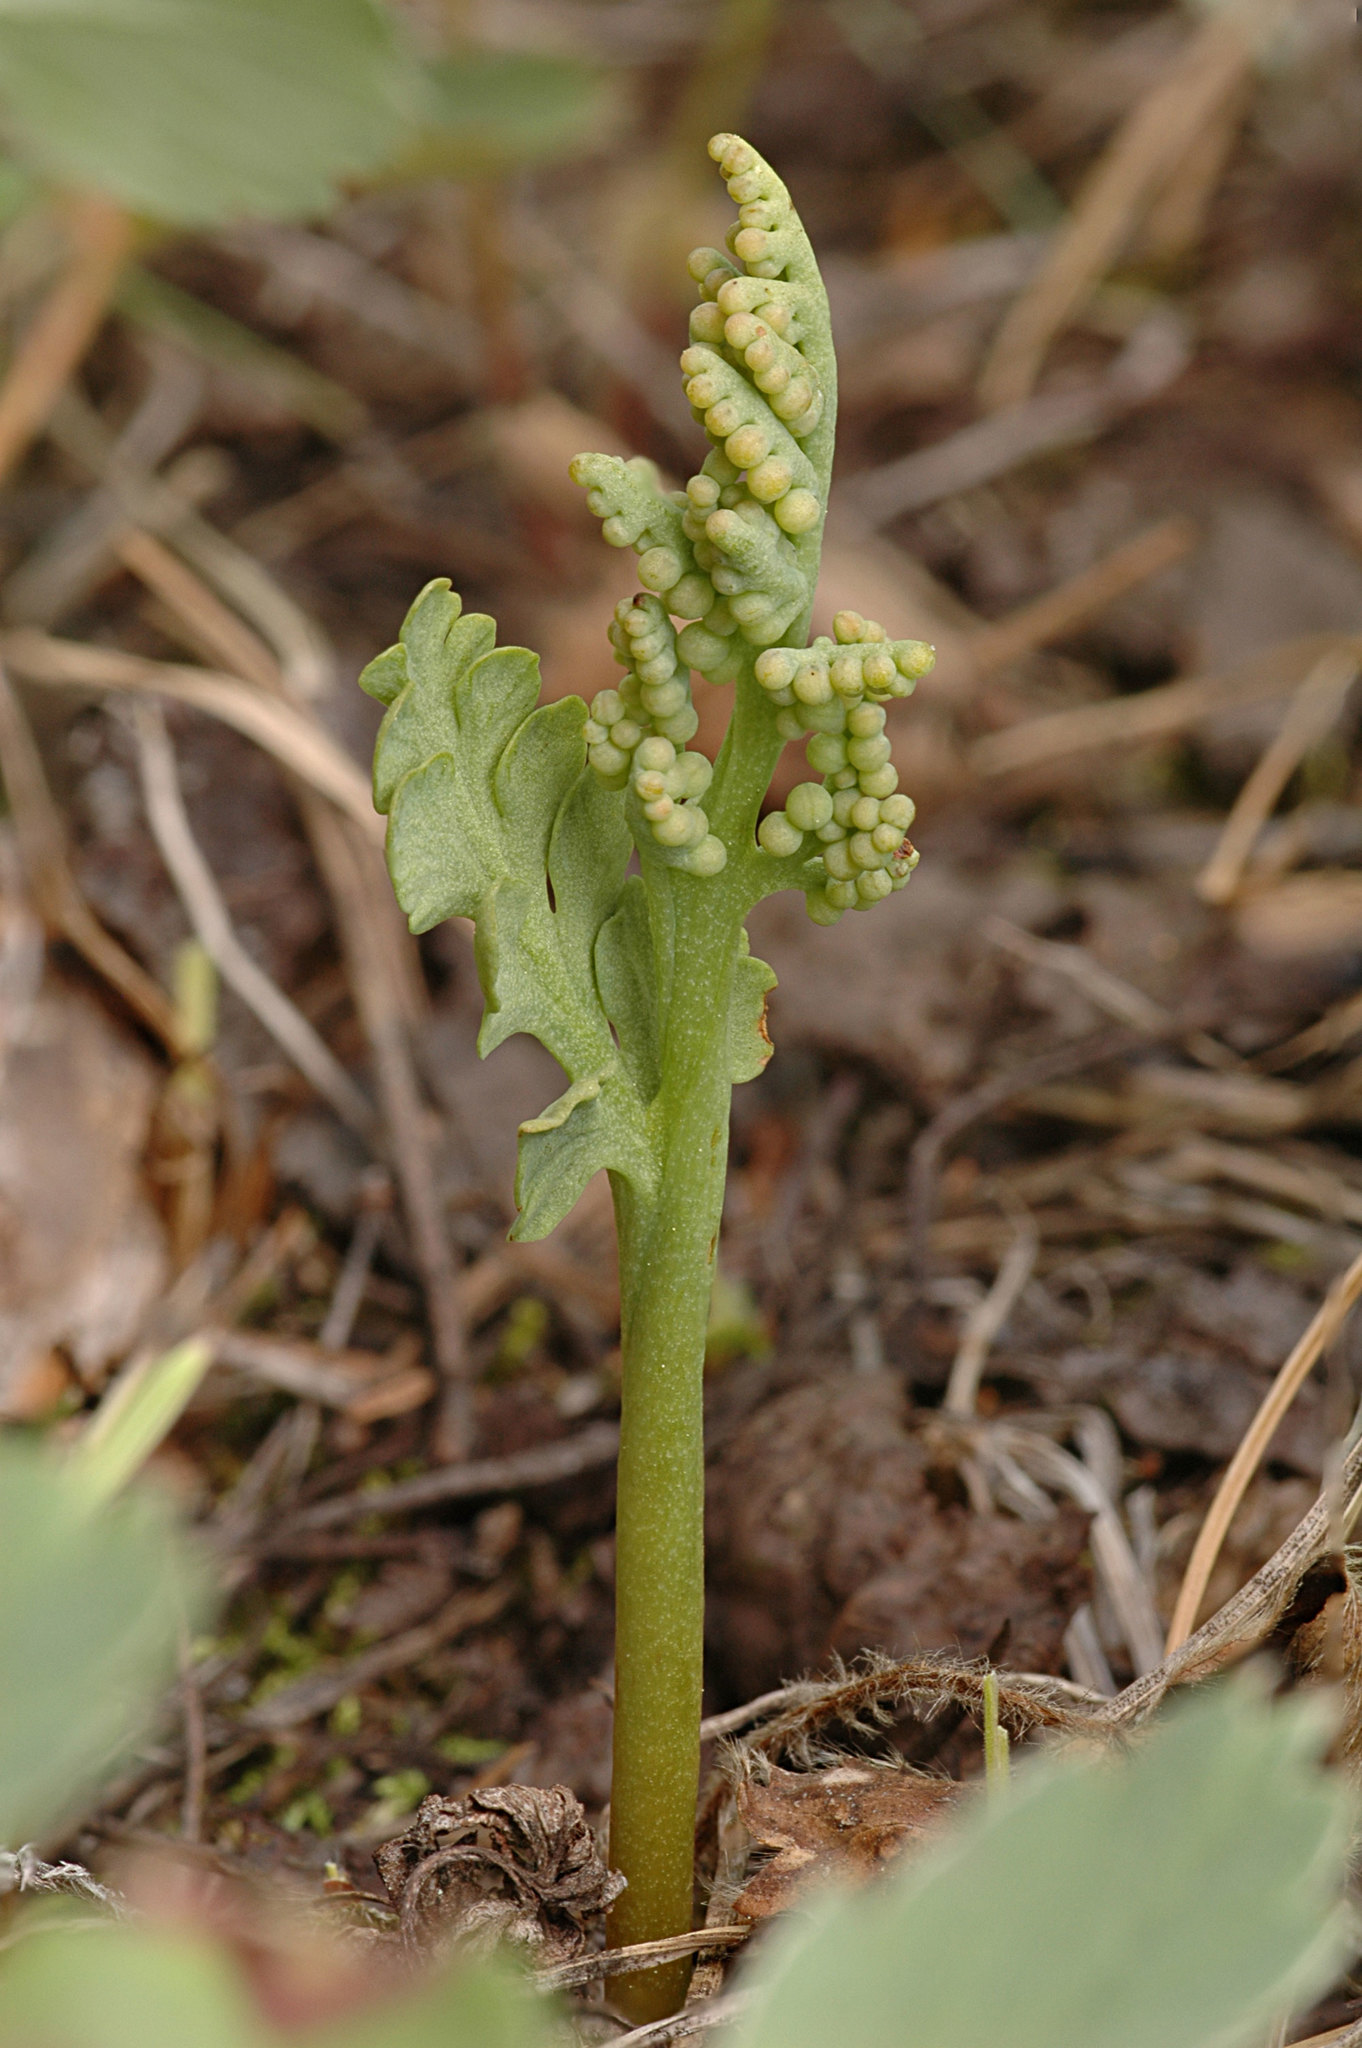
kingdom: Plantae
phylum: Tracheophyta
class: Polypodiopsida
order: Ophioglossales
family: Ophioglossaceae
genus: Botrychium
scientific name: Botrychium hesperium
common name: Western moonwort
